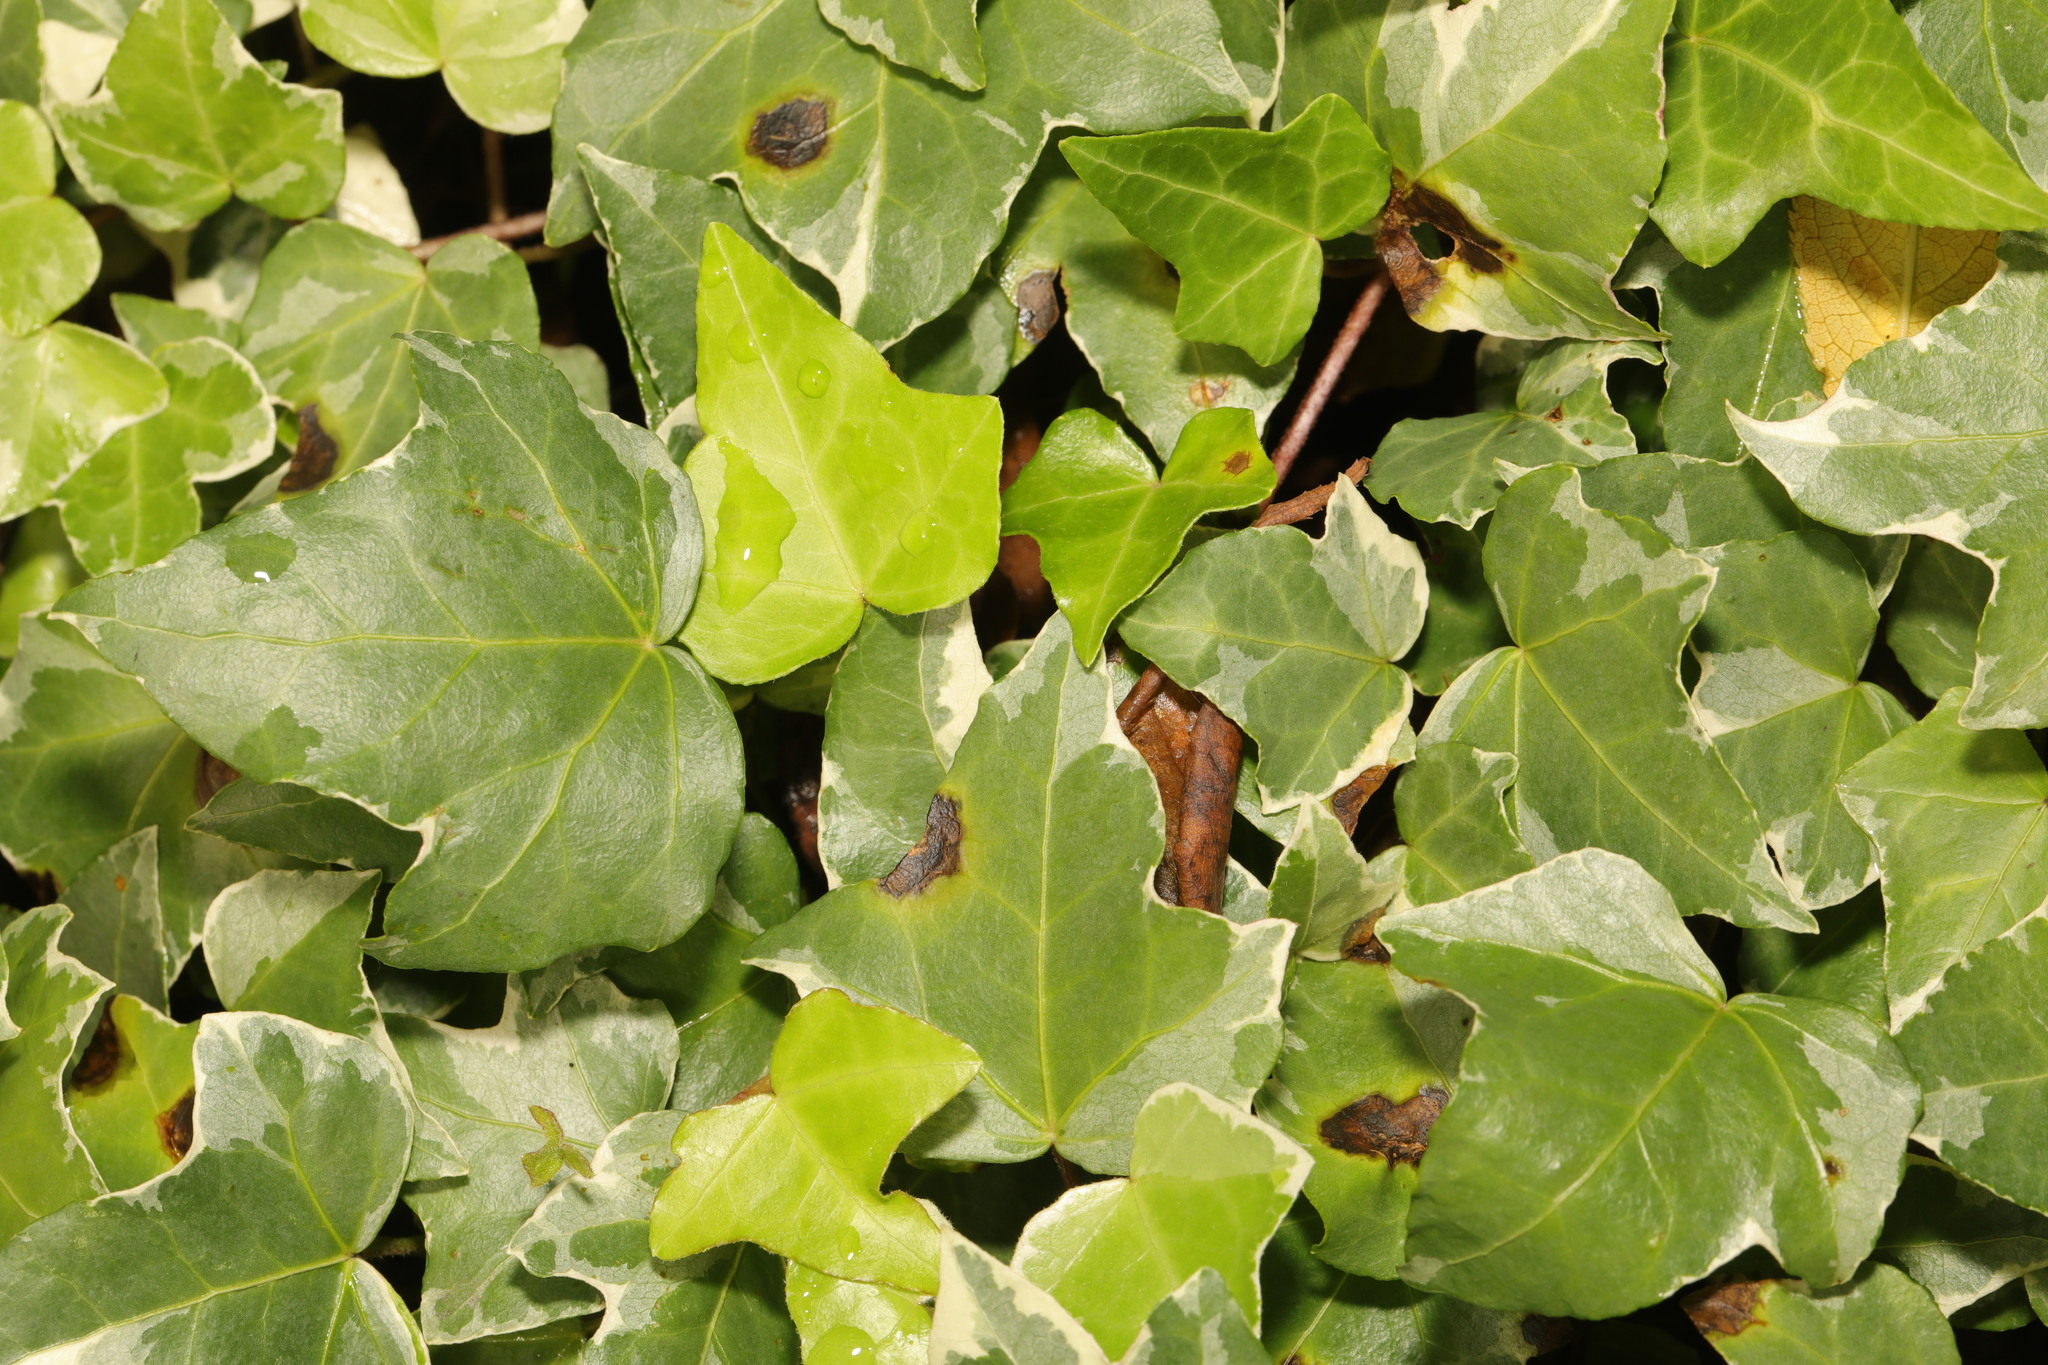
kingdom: Plantae
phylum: Tracheophyta
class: Magnoliopsida
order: Apiales
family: Araliaceae
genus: Hedera
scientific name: Hedera helix
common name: Ivy
